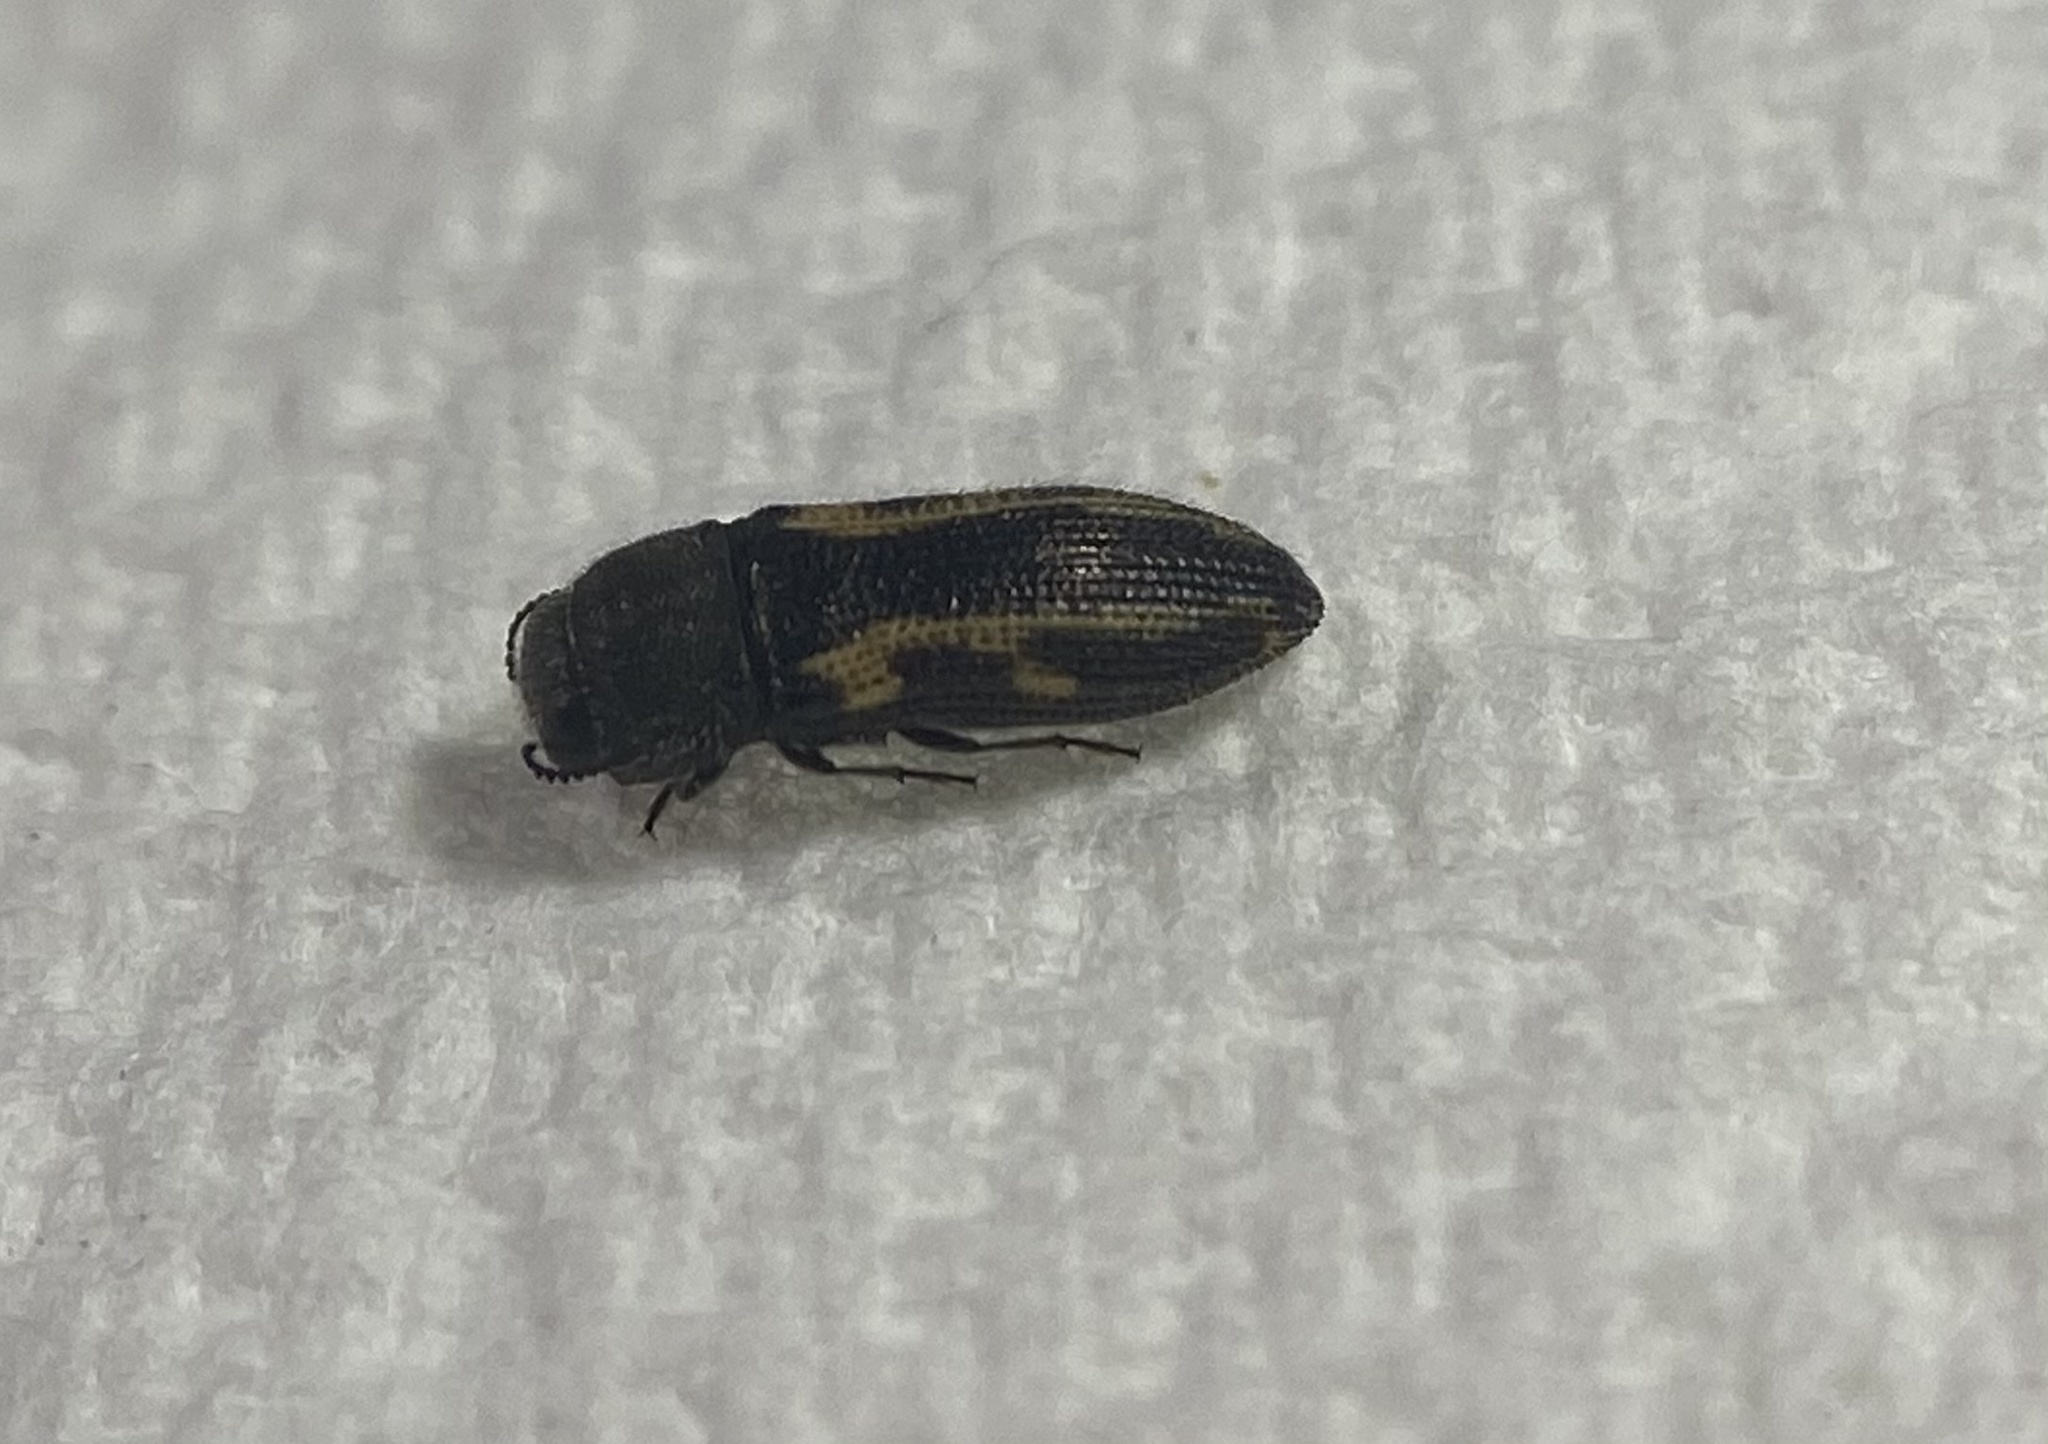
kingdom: Animalia
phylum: Arthropoda
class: Insecta
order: Coleoptera
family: Buprestidae
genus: Acmaeodera
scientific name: Acmaeodera ligulata
